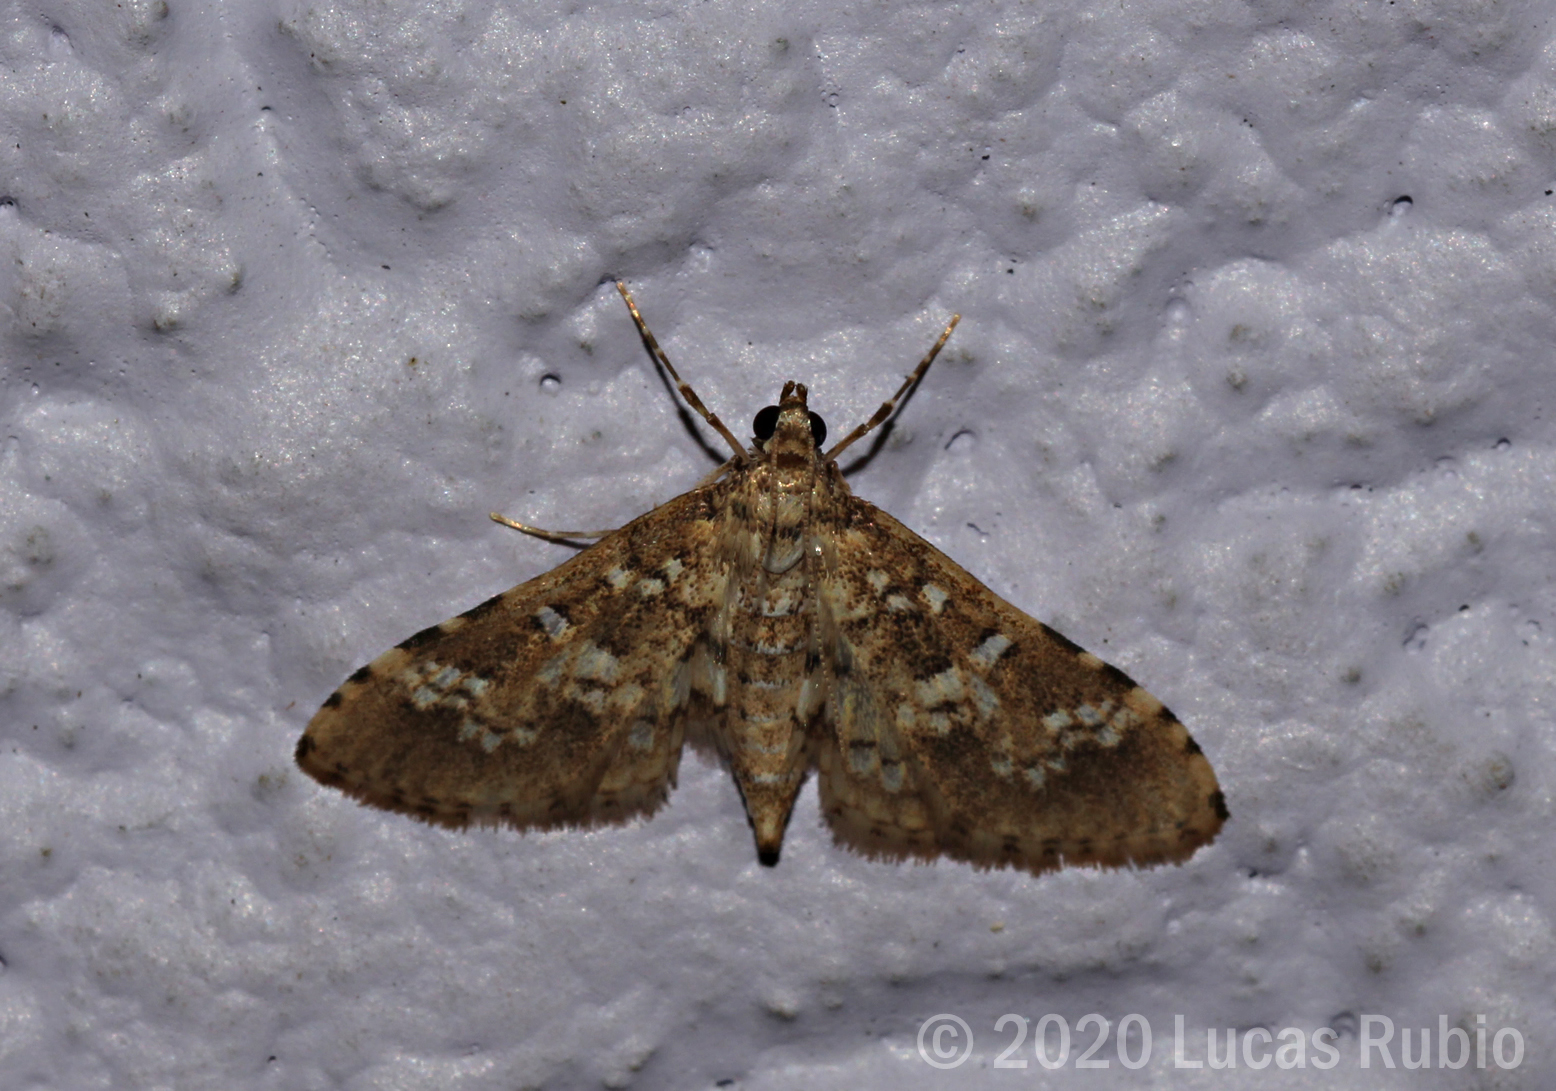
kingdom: Animalia
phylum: Arthropoda
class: Insecta
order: Lepidoptera
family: Crambidae
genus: Samea
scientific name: Samea multiplicalis
